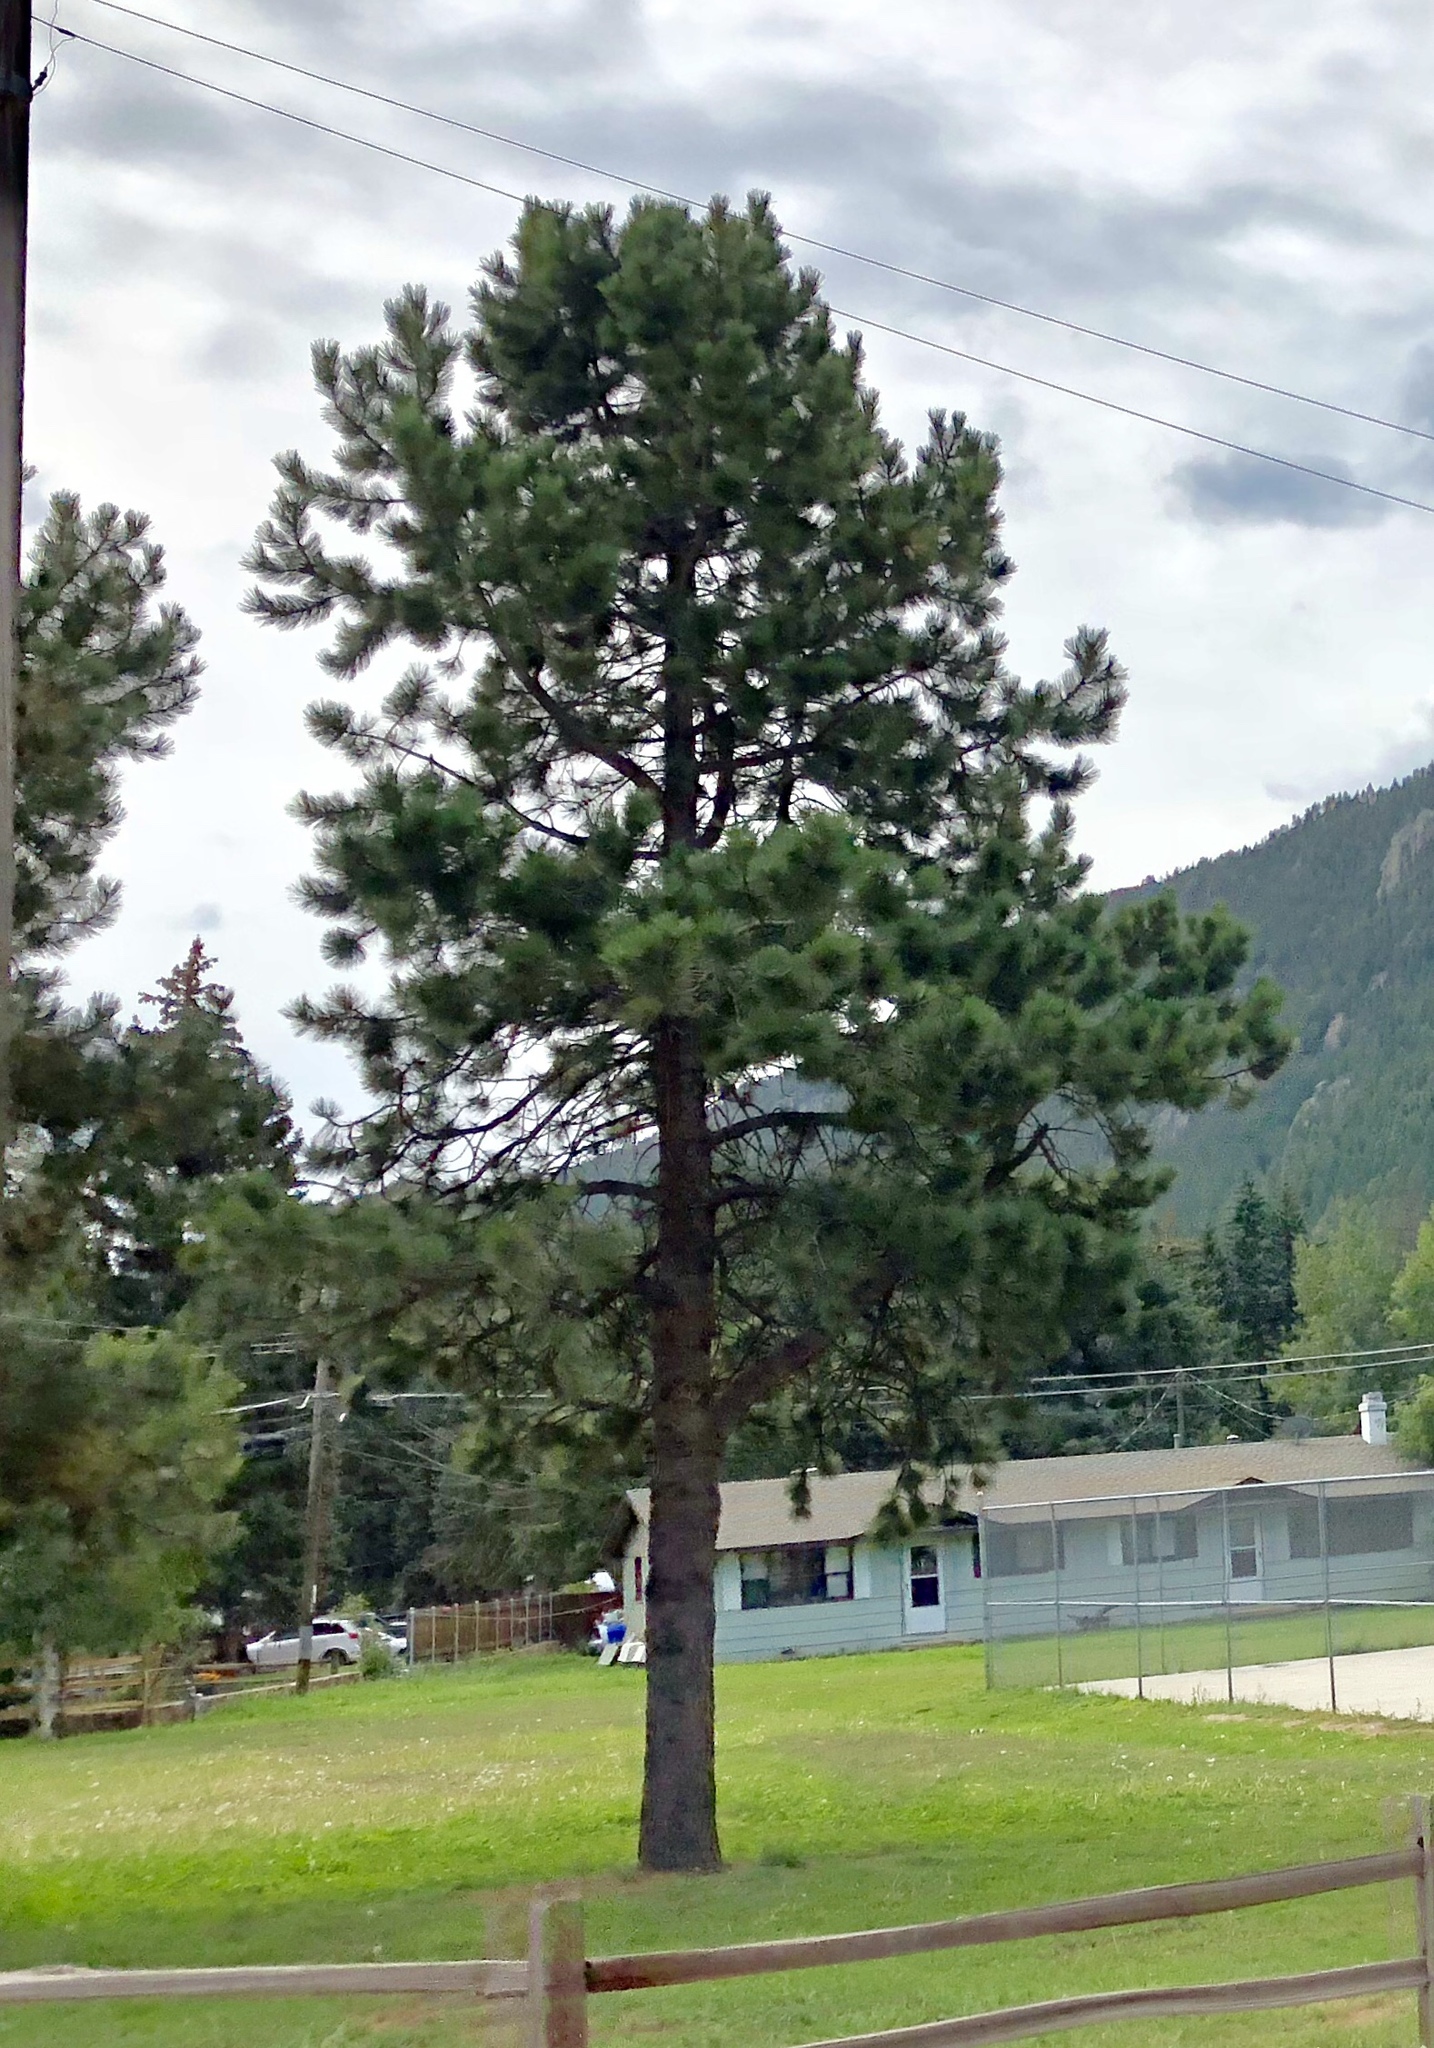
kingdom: Plantae
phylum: Tracheophyta
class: Pinopsida
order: Pinales
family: Pinaceae
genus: Pinus
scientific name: Pinus ponderosa
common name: Western yellow-pine
